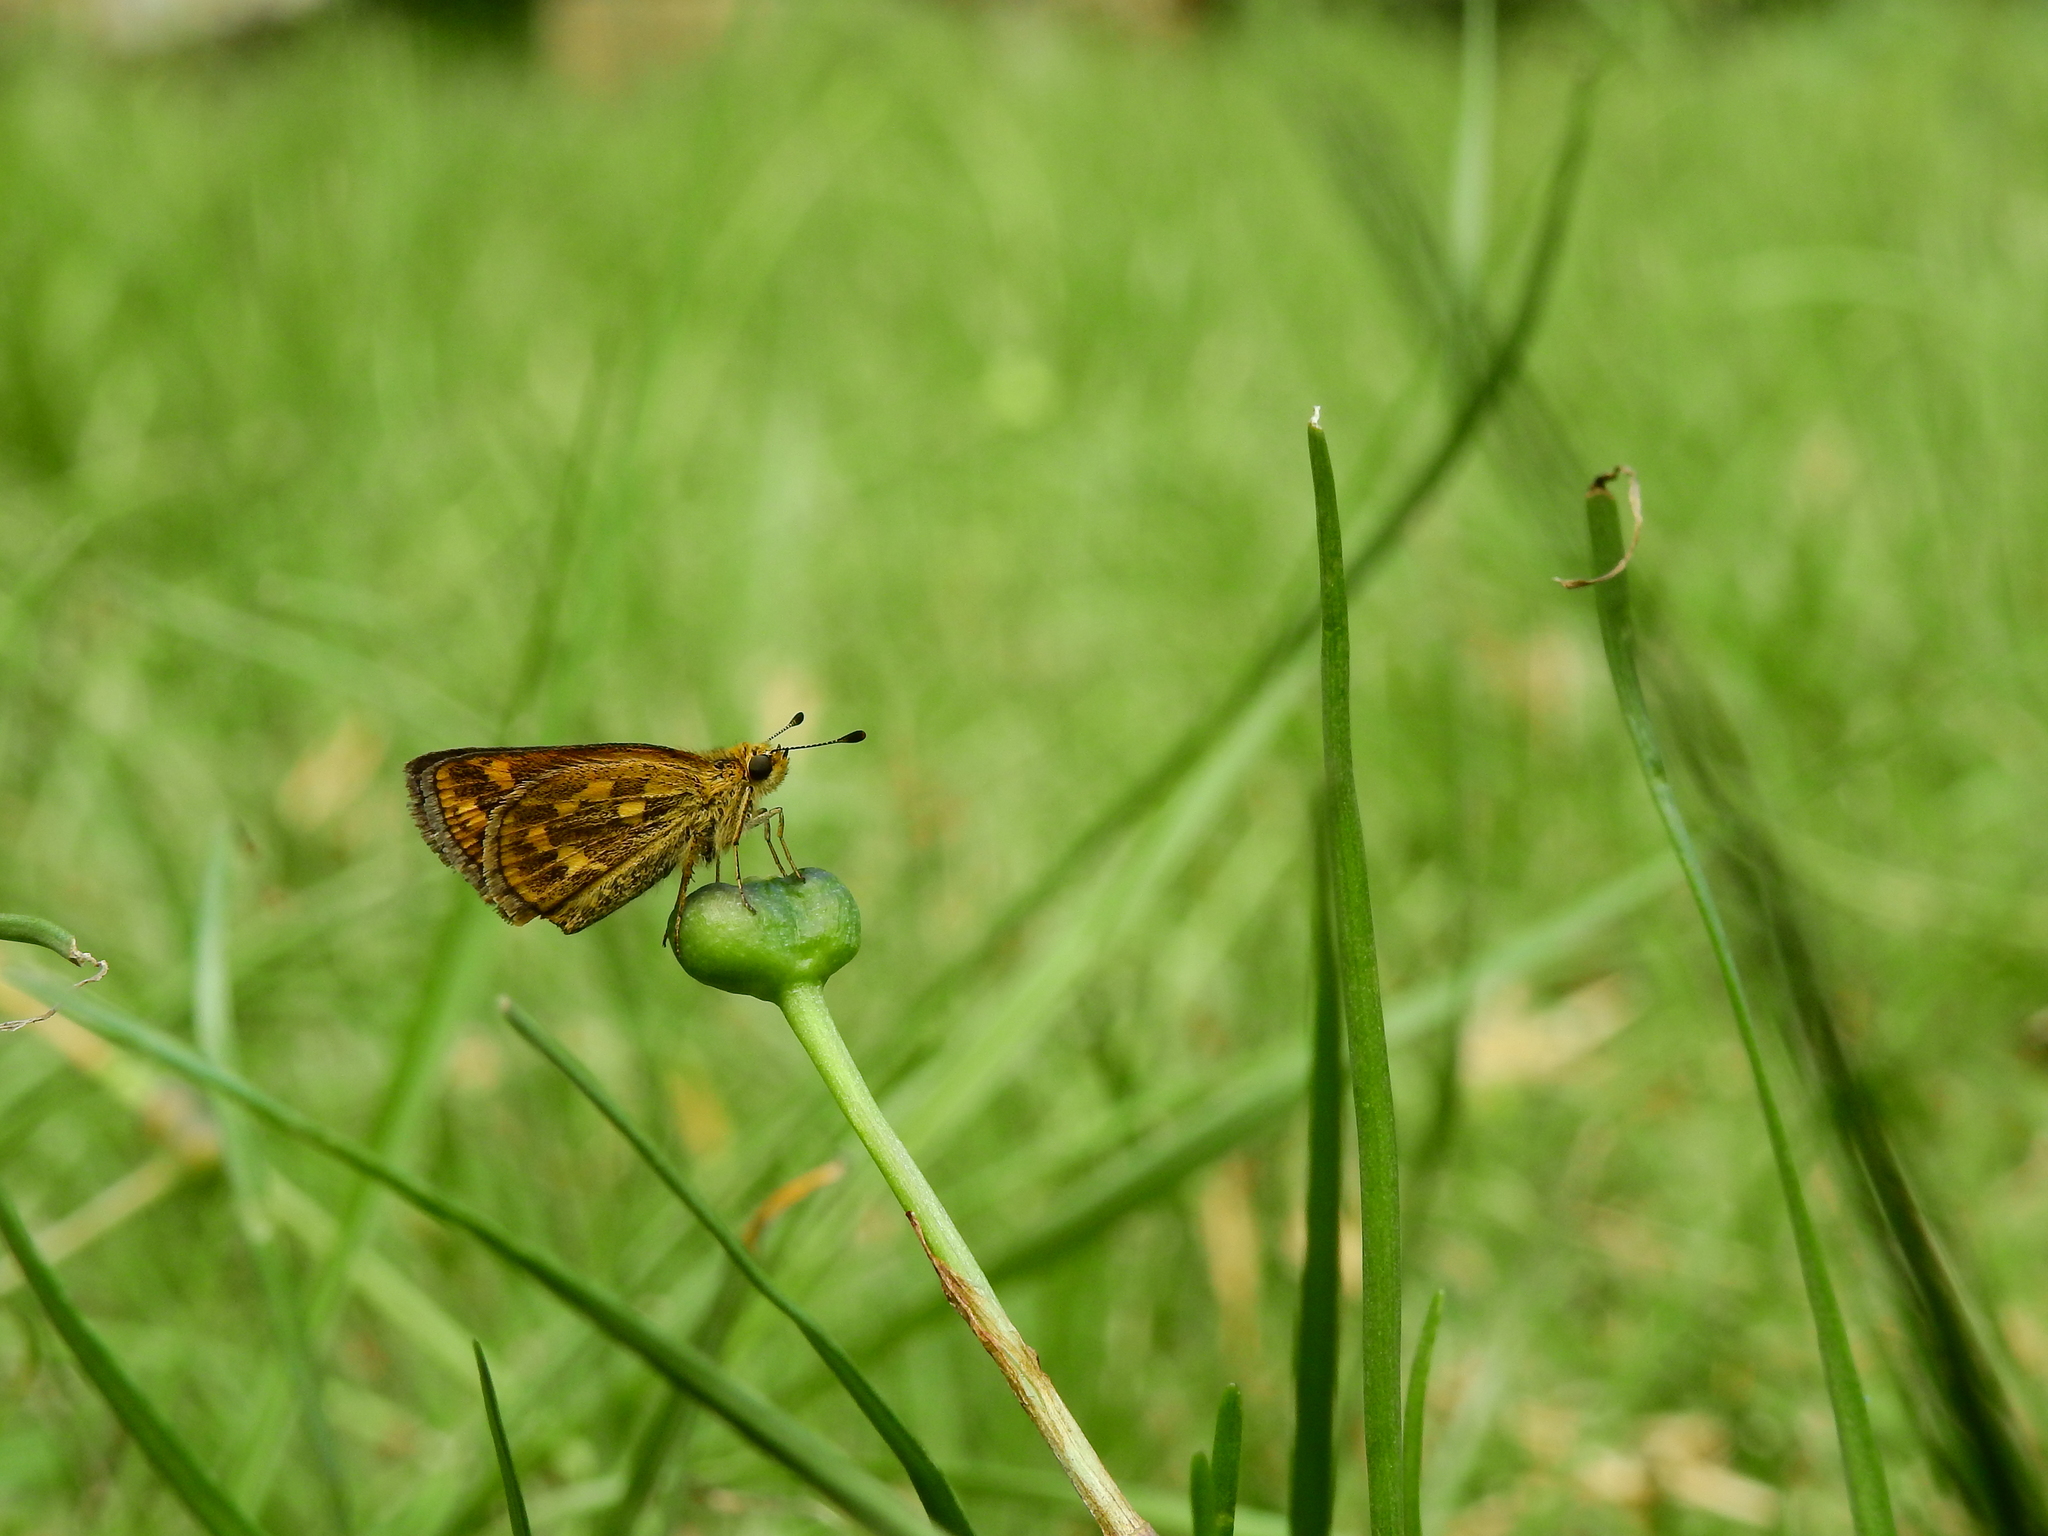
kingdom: Animalia
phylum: Arthropoda
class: Insecta
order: Lepidoptera
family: Hesperiidae
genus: Taractrocera
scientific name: Taractrocera ceramas
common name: Tamil grass dart
